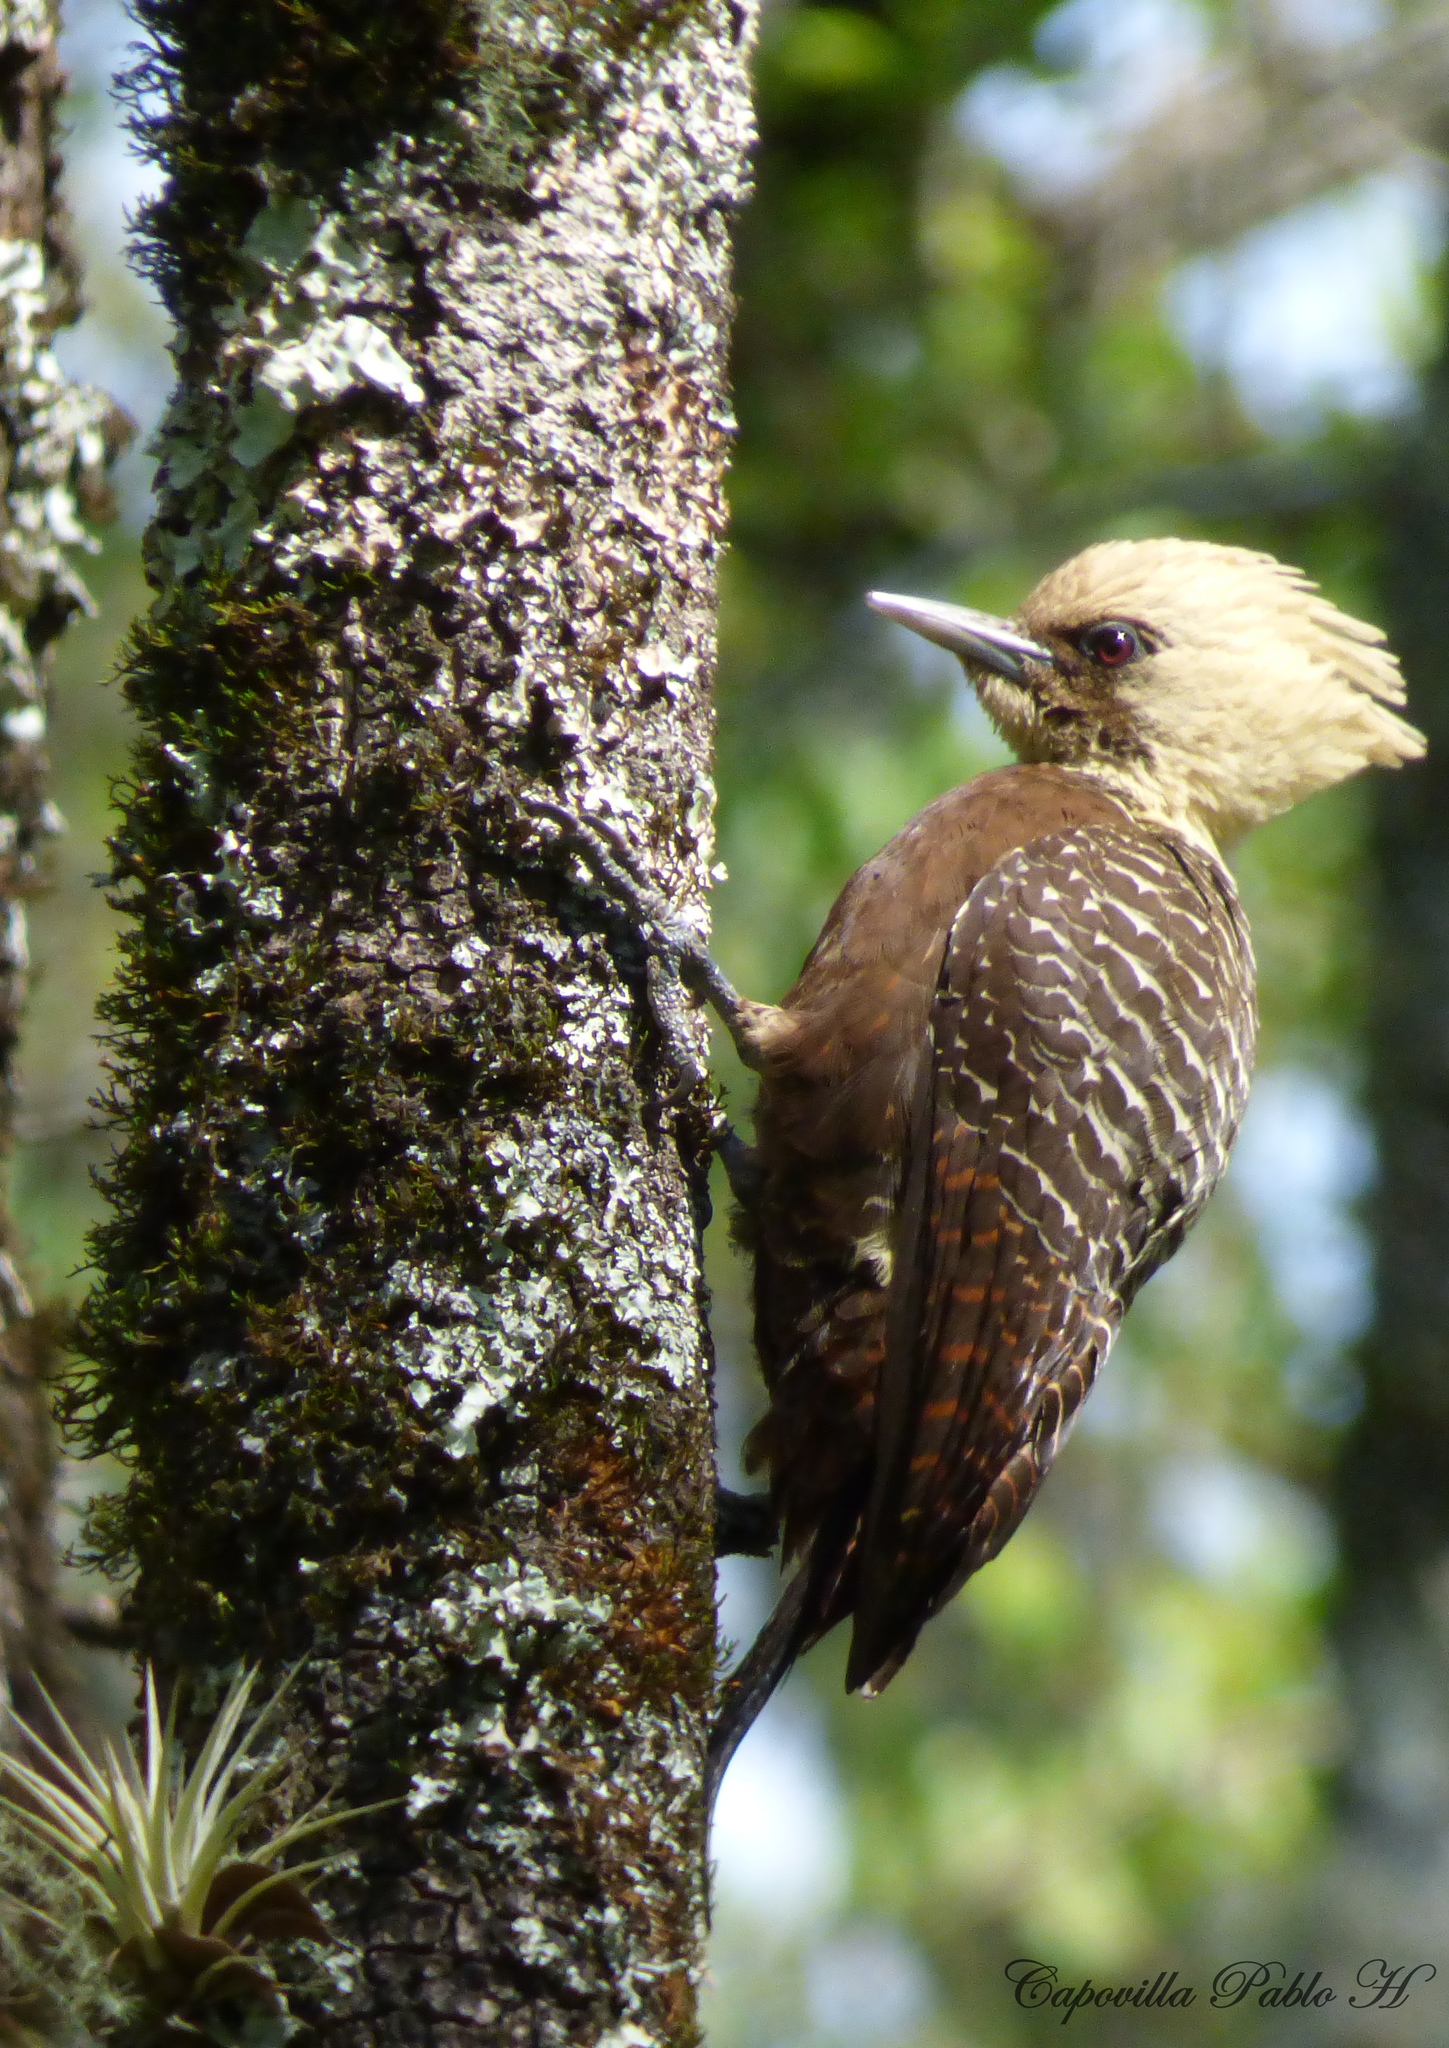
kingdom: Animalia
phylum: Chordata
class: Aves
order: Piciformes
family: Picidae
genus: Celeus
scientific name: Celeus lugubris
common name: Pale-crested woodpecker
